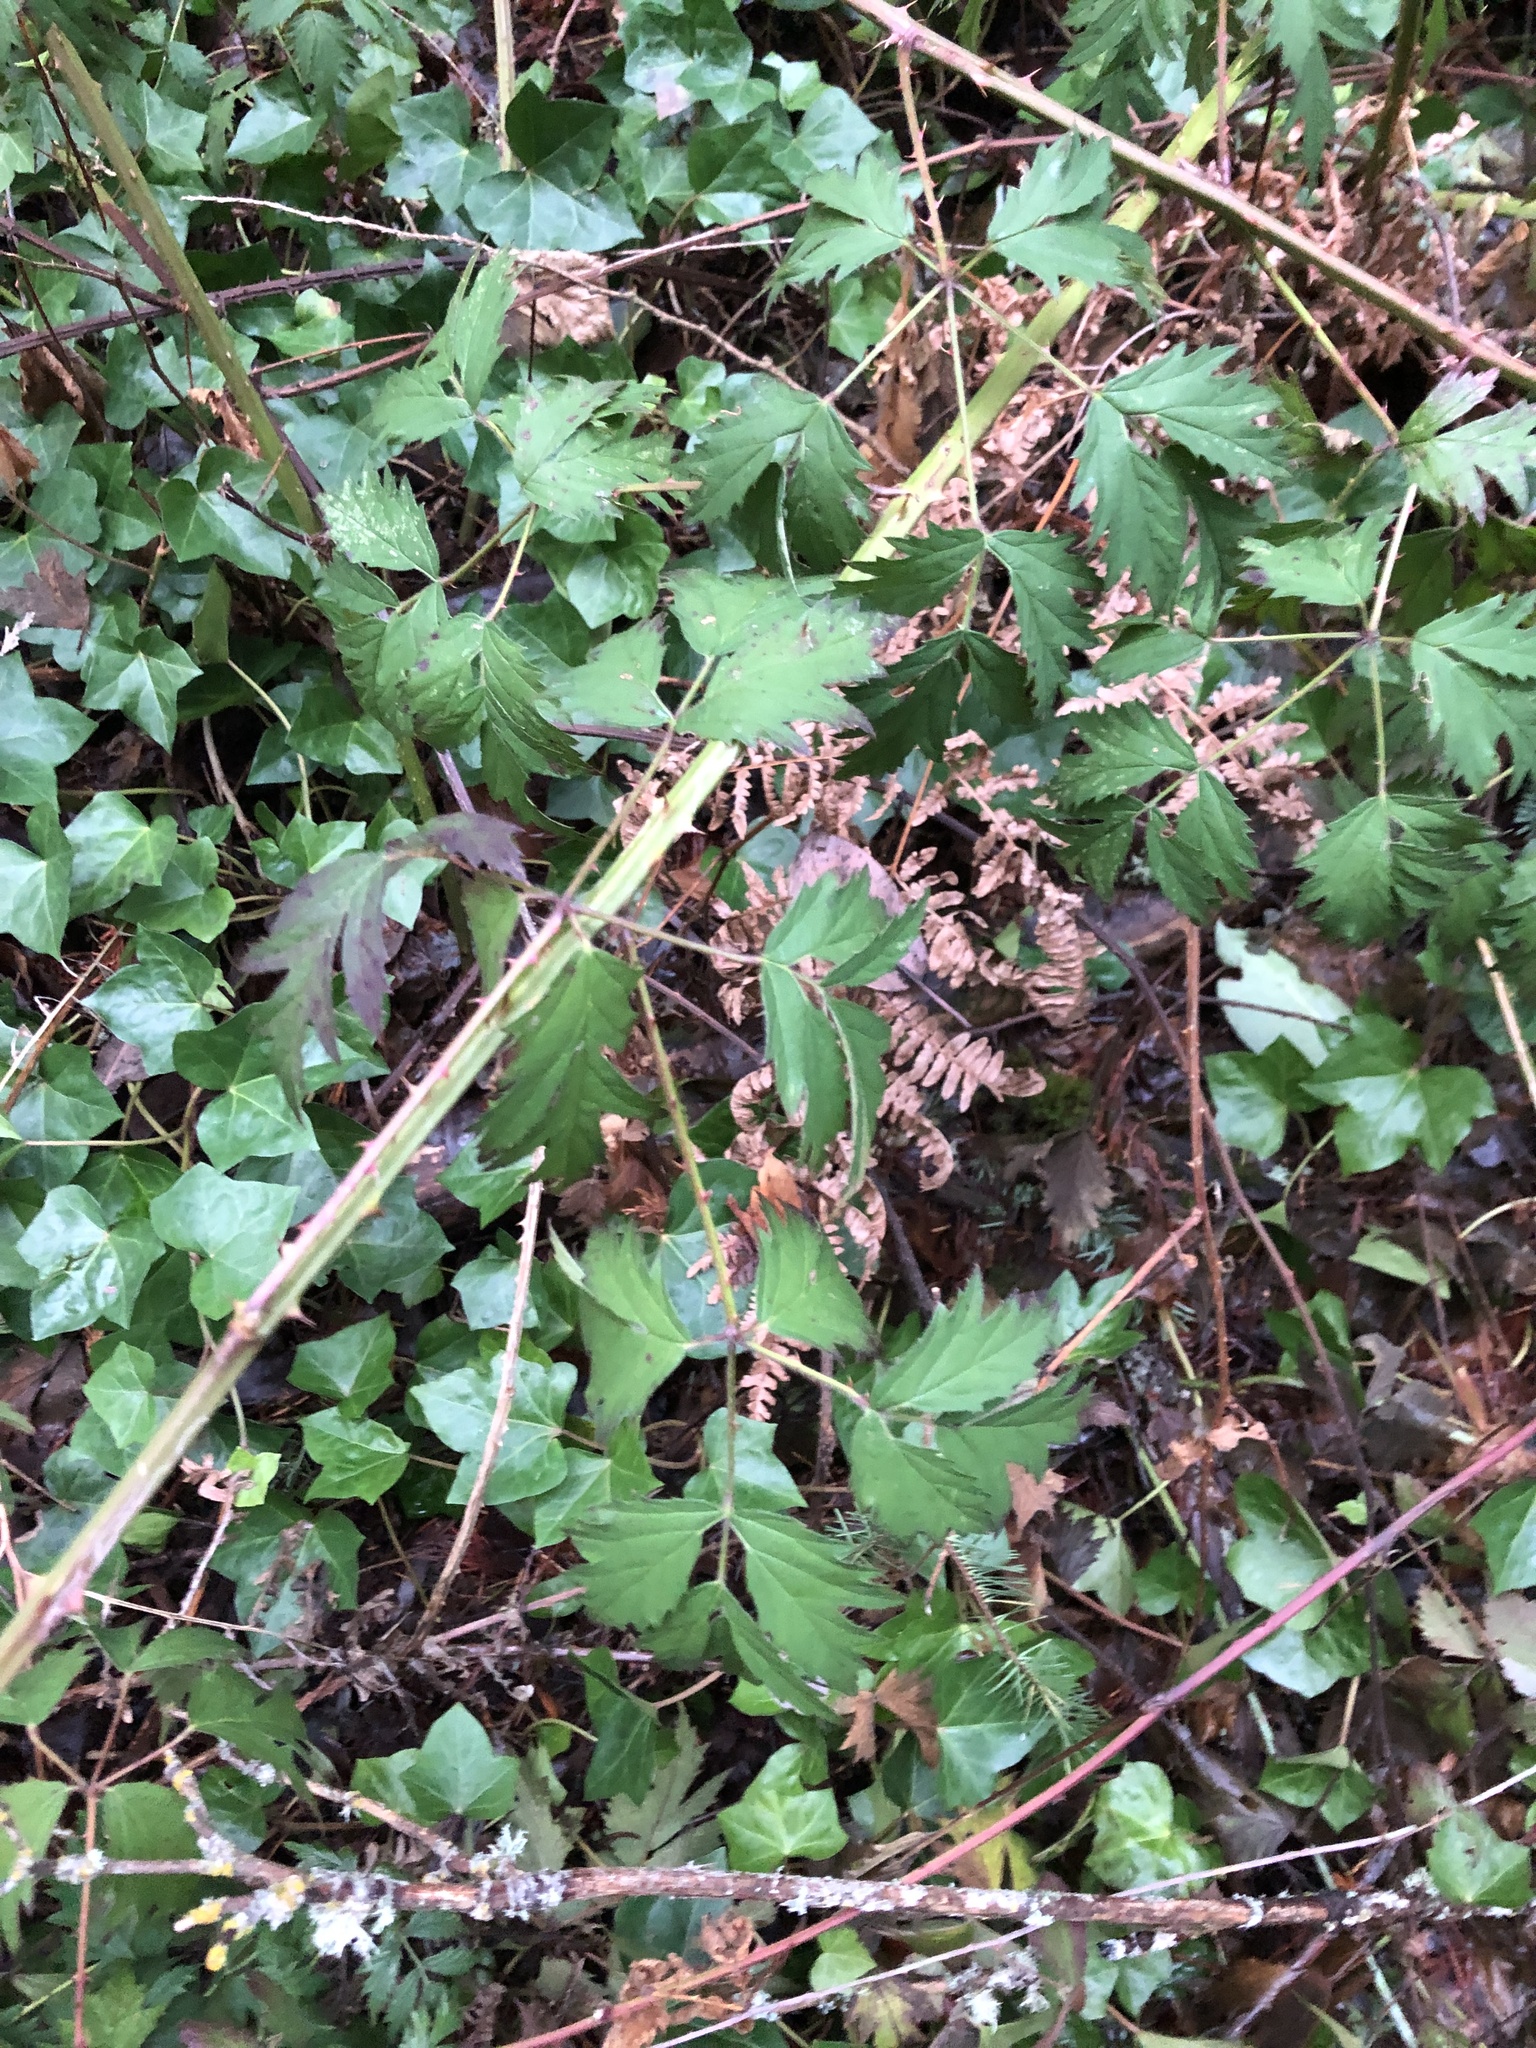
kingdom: Plantae
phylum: Tracheophyta
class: Magnoliopsida
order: Rosales
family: Rosaceae
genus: Rubus
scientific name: Rubus laciniatus
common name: Evergreen blackberry
